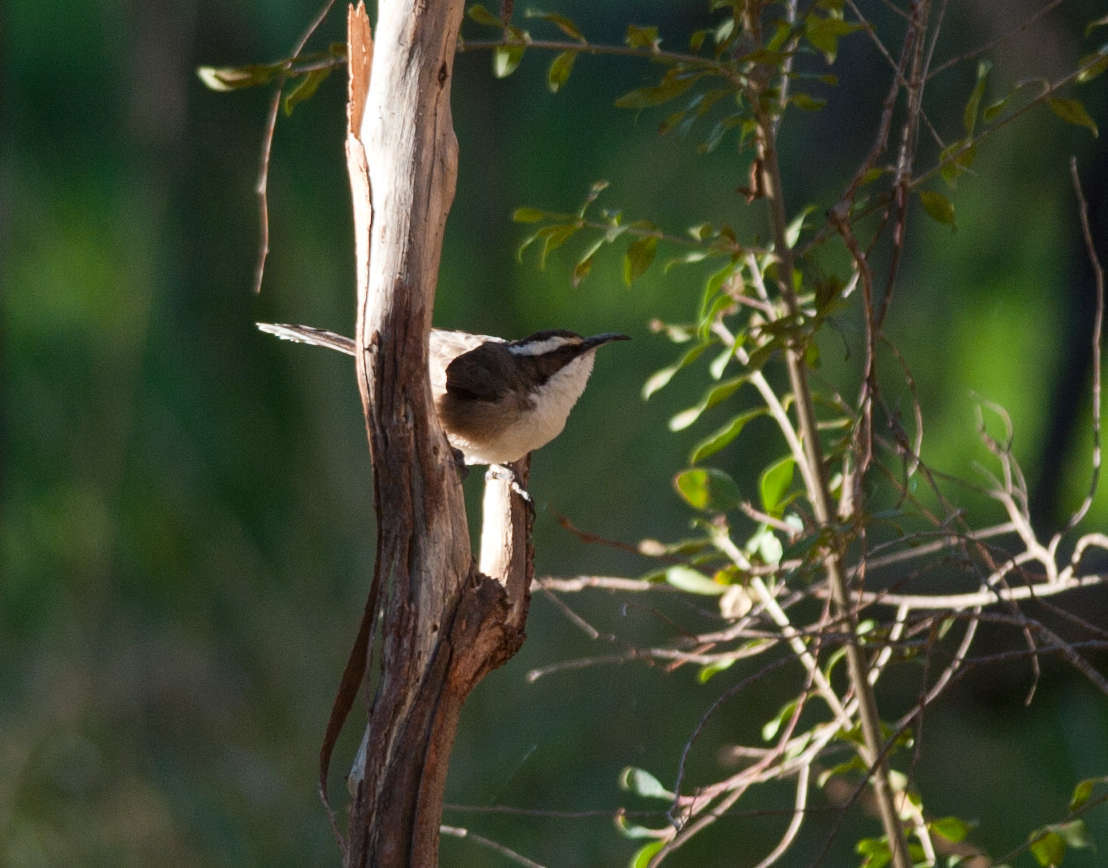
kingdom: Animalia
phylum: Chordata
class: Aves
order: Passeriformes
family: Pomatostomidae
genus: Pomatostomus
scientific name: Pomatostomus superciliosus
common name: White-browed babbler
